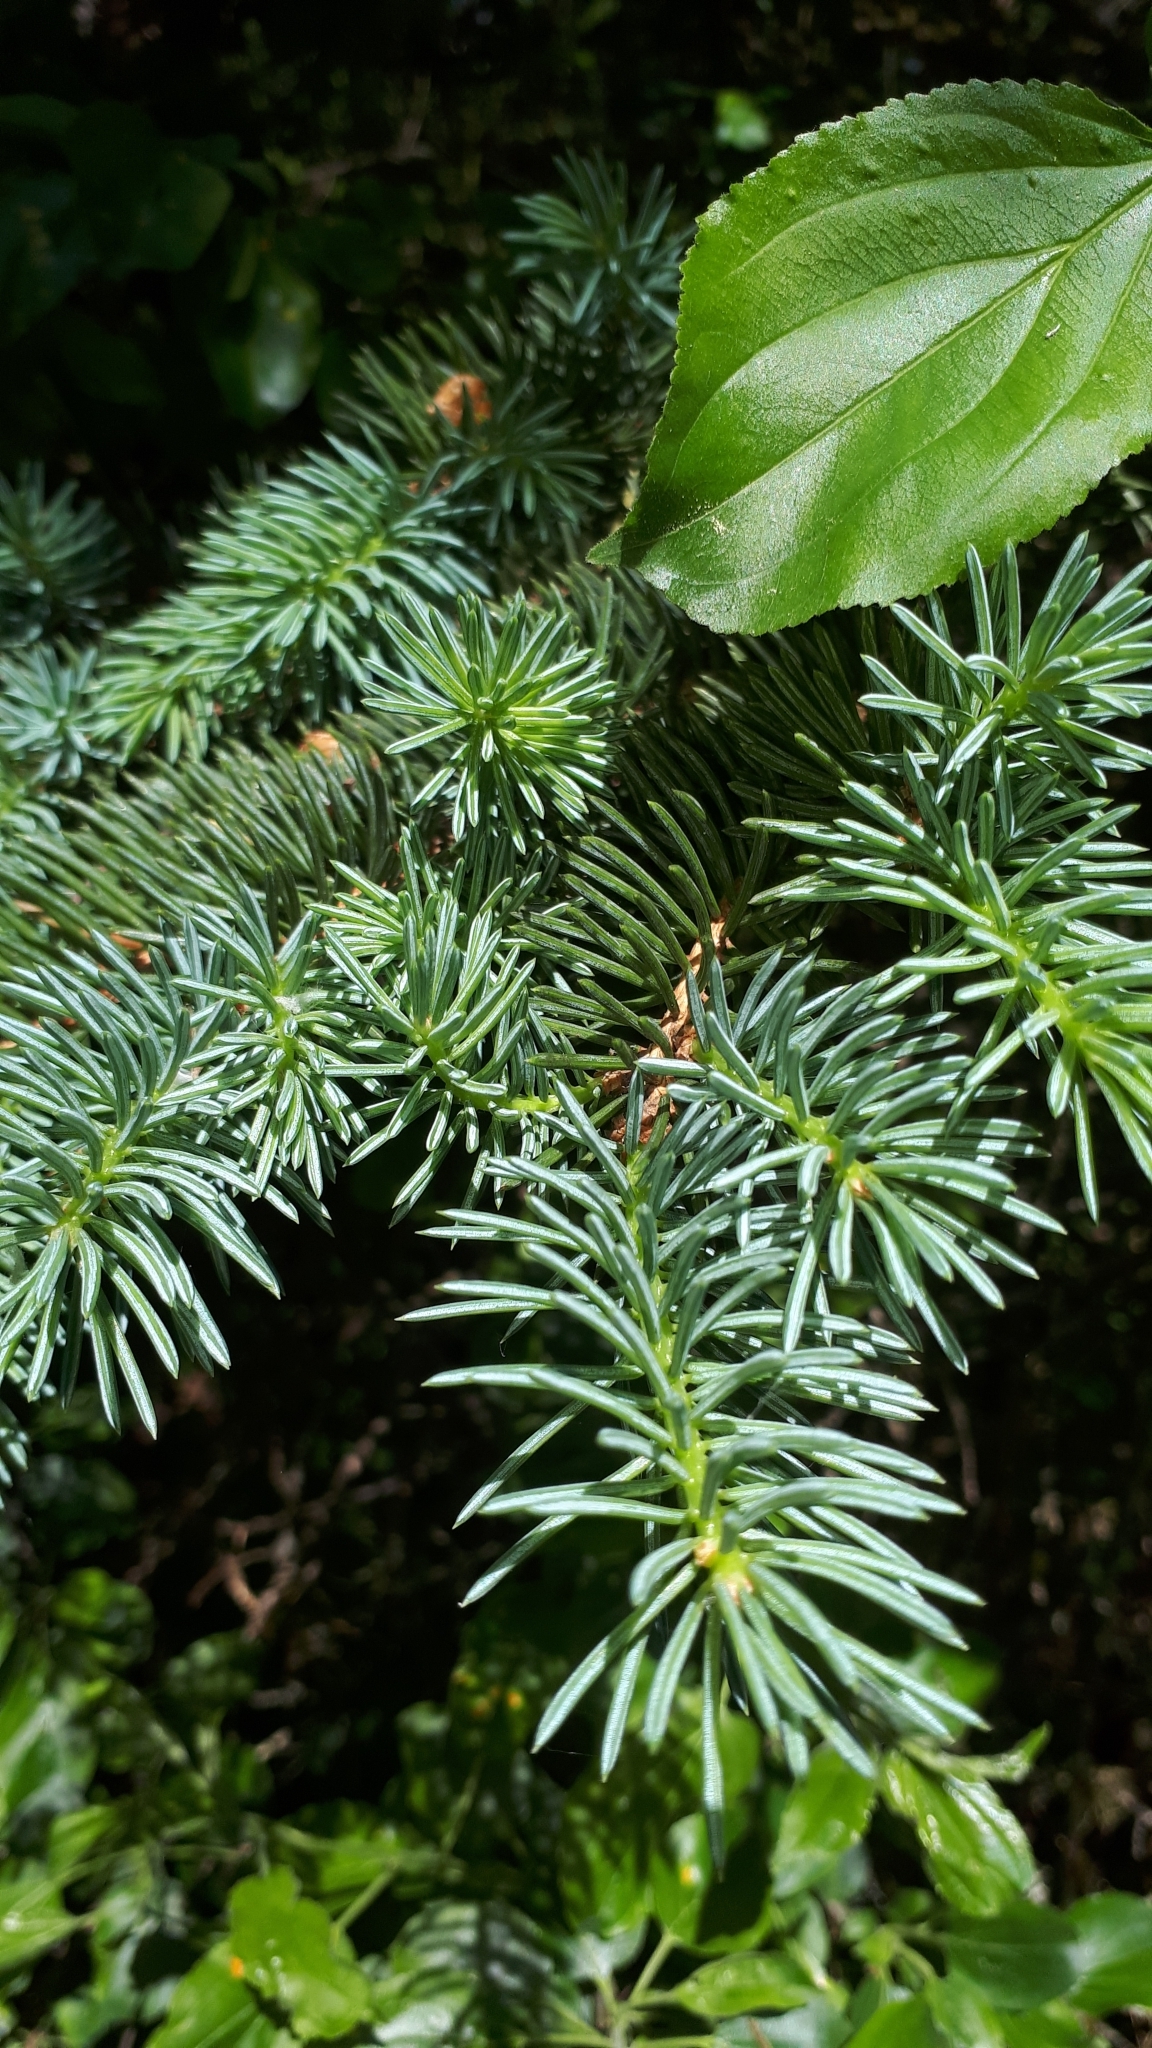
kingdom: Plantae
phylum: Tracheophyta
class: Pinopsida
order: Pinales
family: Pinaceae
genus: Picea
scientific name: Picea pungens
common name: Colorado spruce
